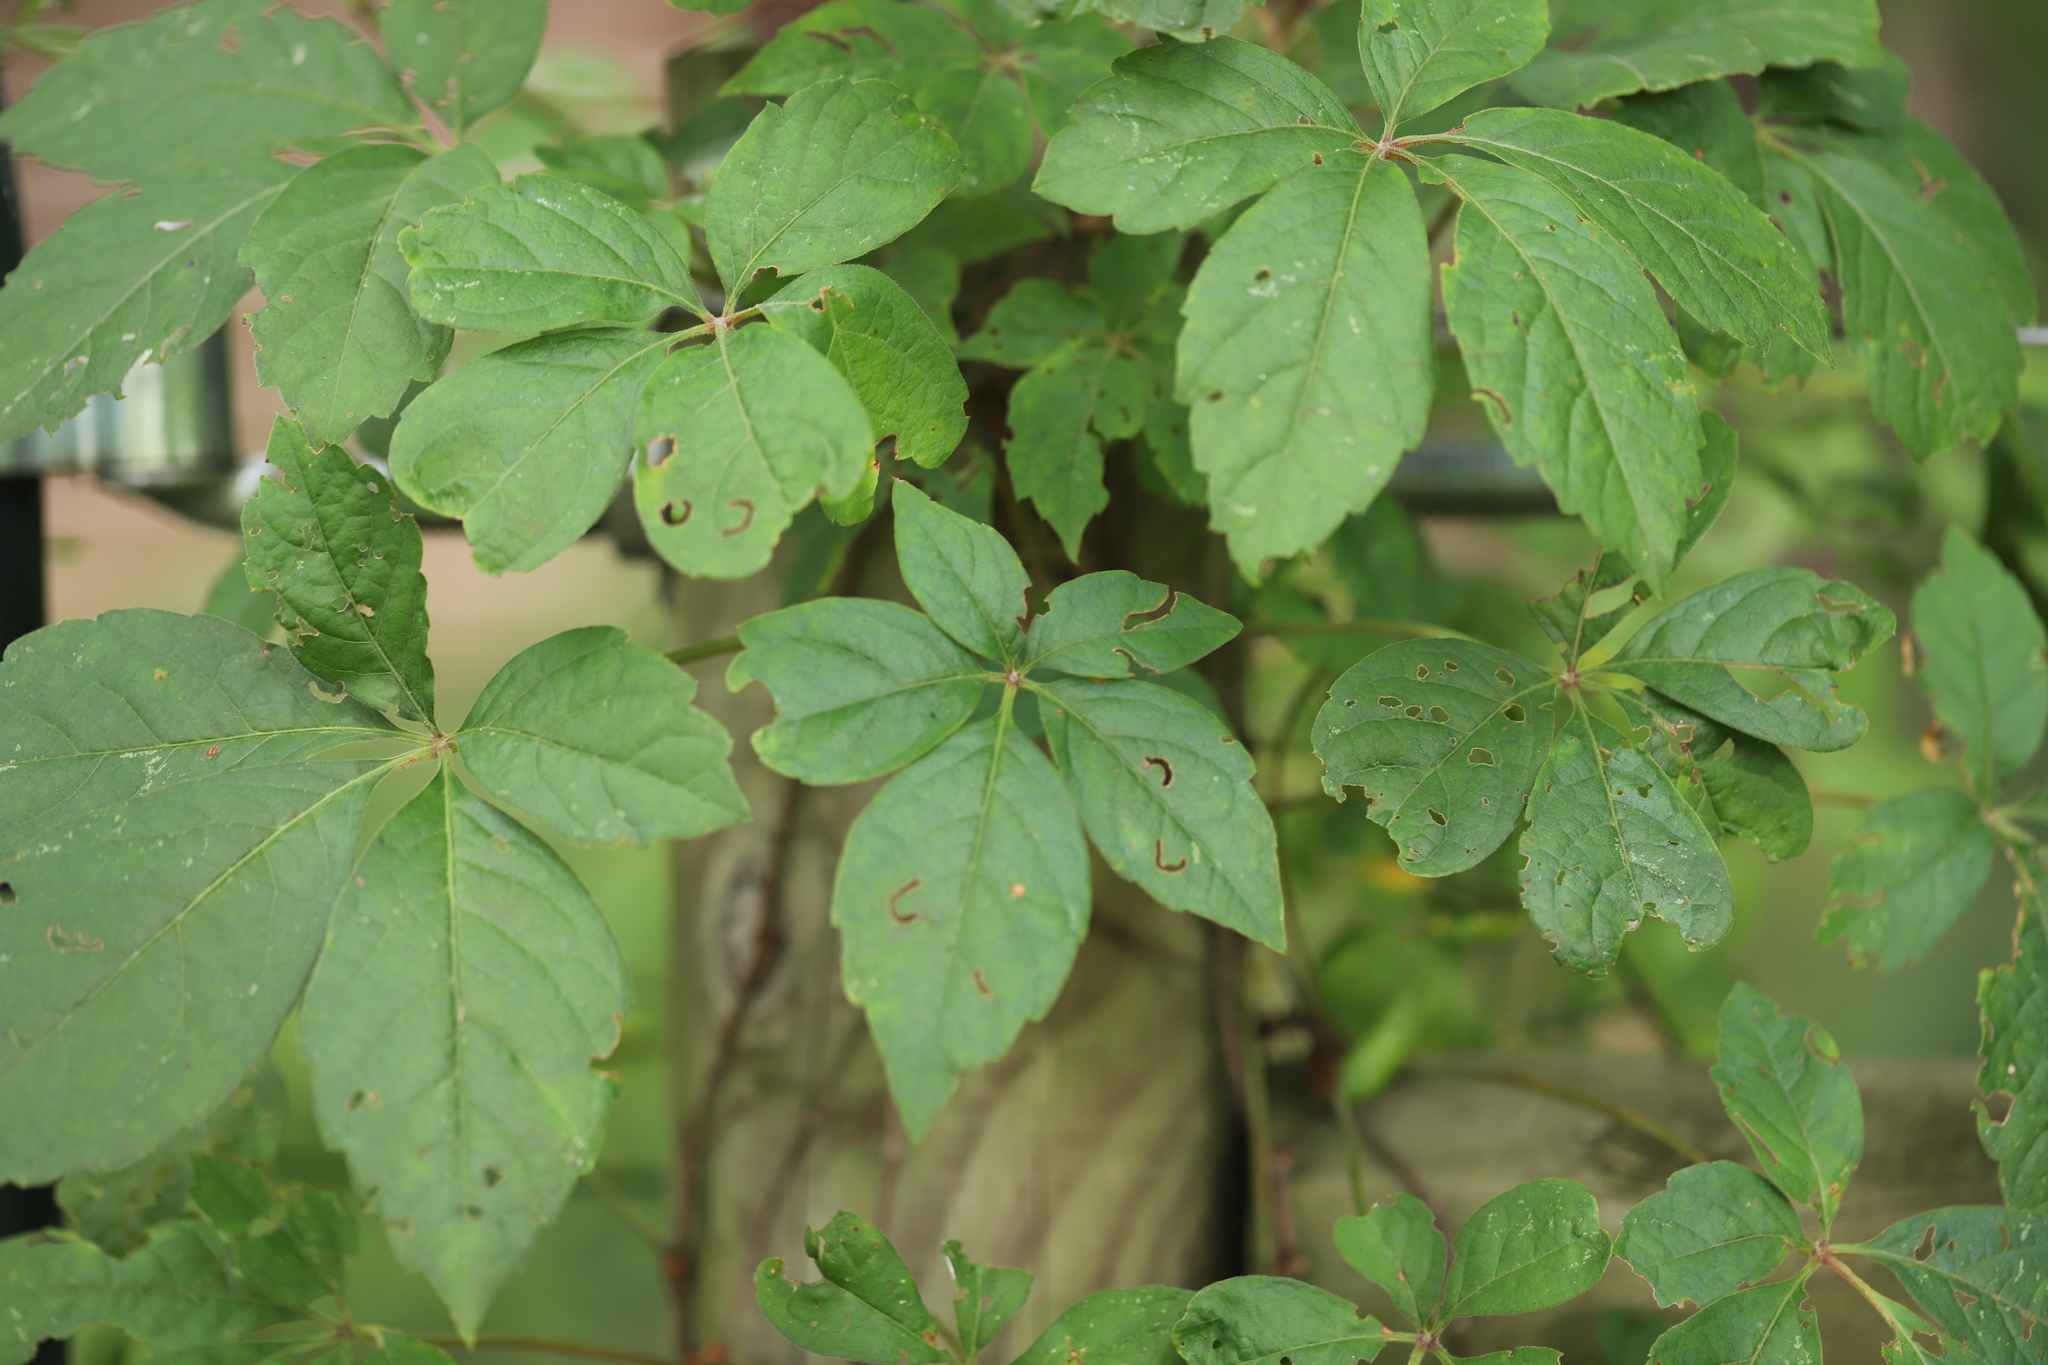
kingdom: Plantae
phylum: Tracheophyta
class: Magnoliopsida
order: Vitales
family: Vitaceae
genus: Parthenocissus
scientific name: Parthenocissus quinquefolia
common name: Virginia-creeper
